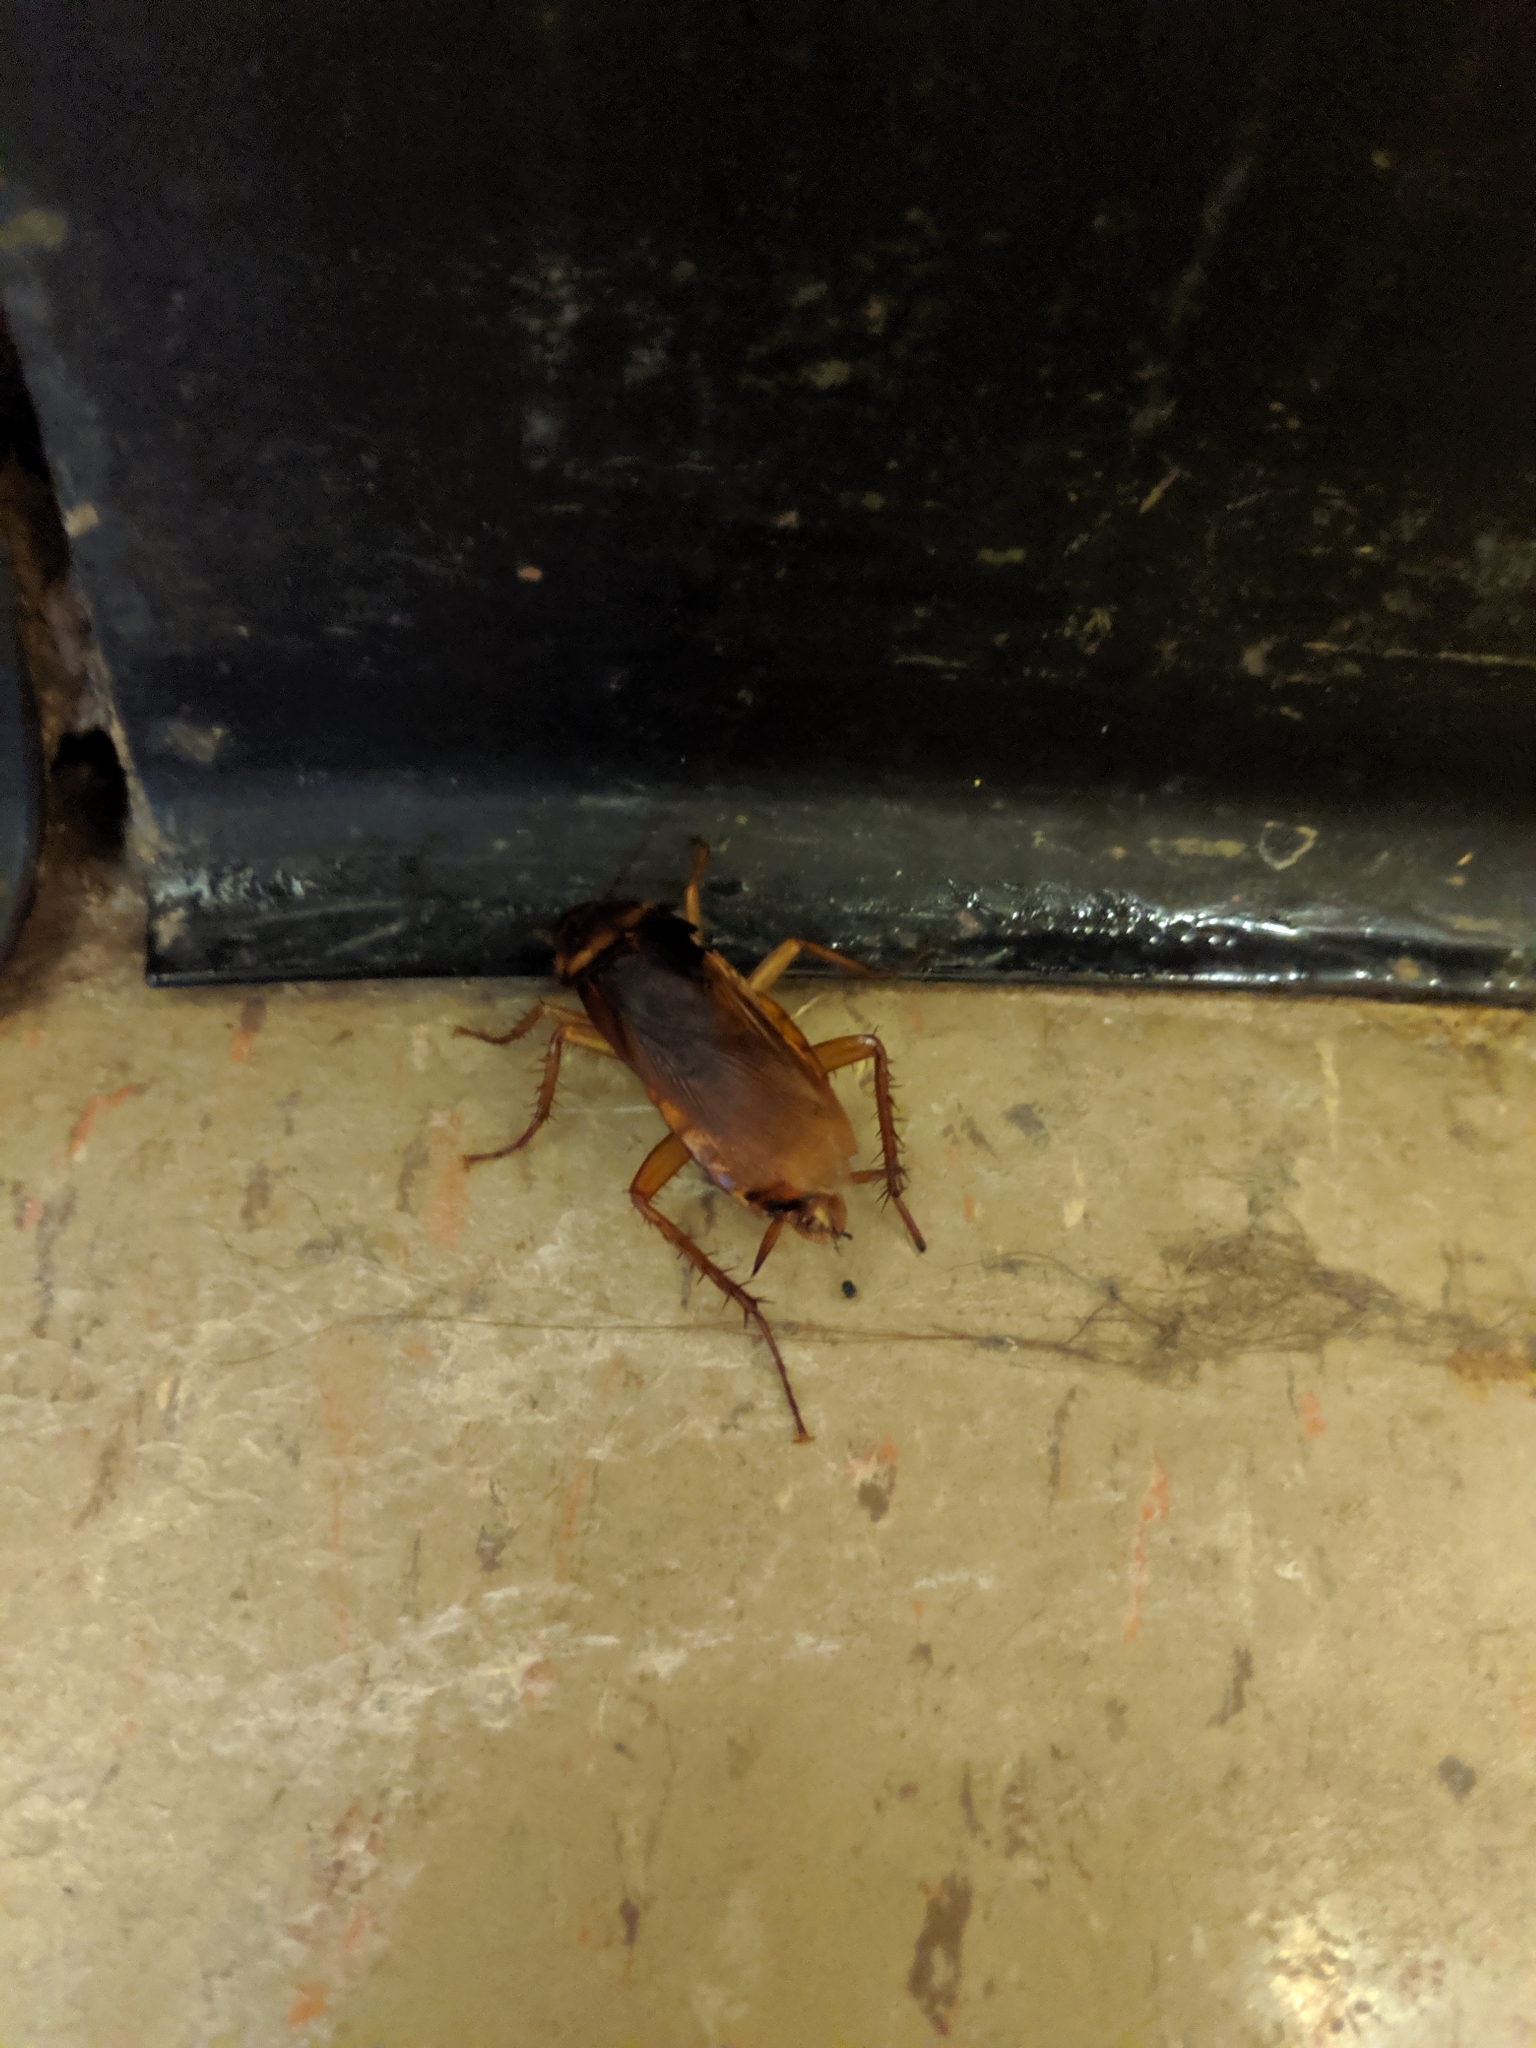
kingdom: Animalia
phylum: Arthropoda
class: Insecta
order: Blattodea
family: Blattidae
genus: Periplaneta
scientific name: Periplaneta americana
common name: American cockroach
